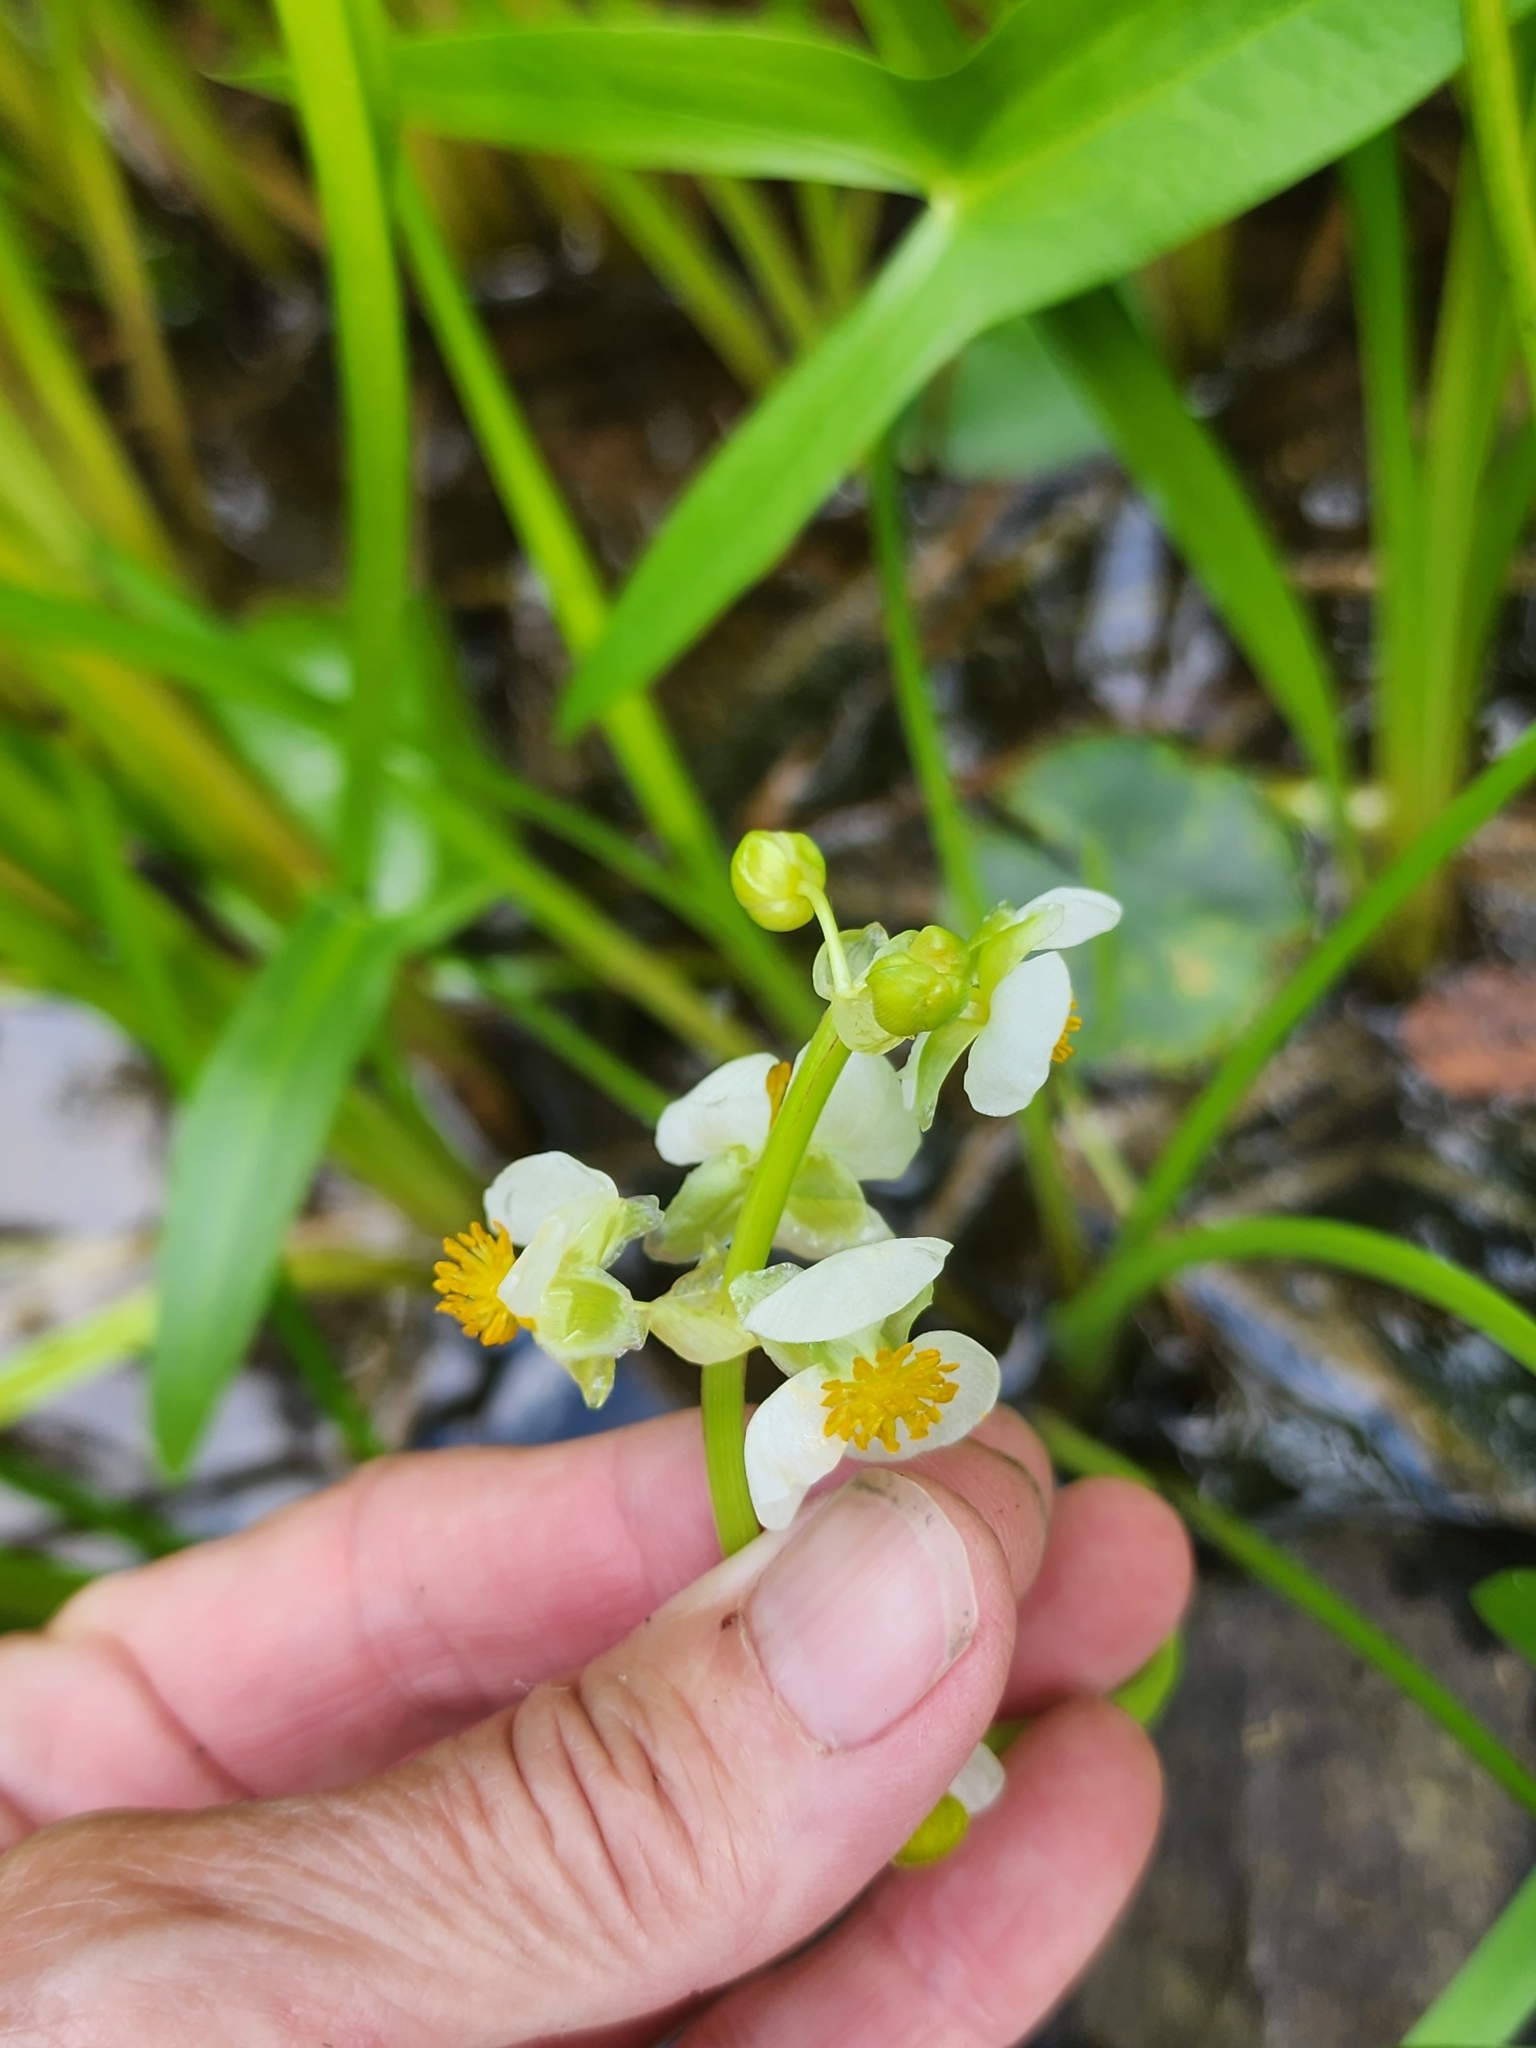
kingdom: Plantae
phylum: Tracheophyta
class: Liliopsida
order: Alismatales
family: Alismataceae
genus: Sagittaria
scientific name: Sagittaria latifolia
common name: Duck-potato
